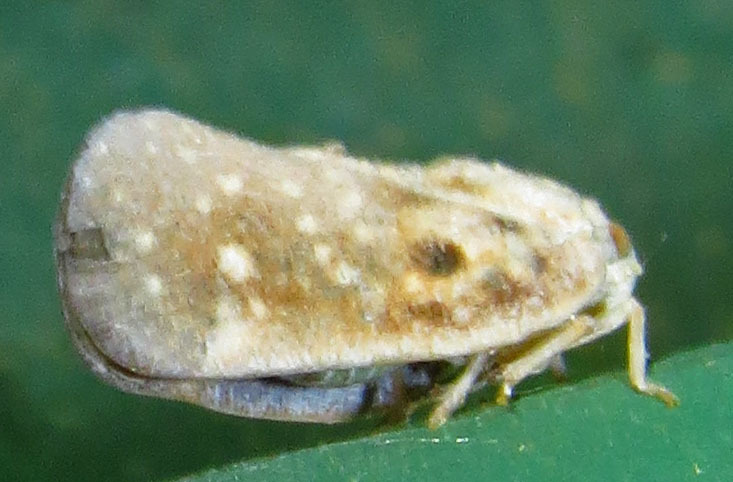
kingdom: Animalia
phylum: Arthropoda
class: Insecta
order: Hemiptera
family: Flatidae
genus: Metcalfa
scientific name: Metcalfa pruinosa
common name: Citrus flatid planthopper
